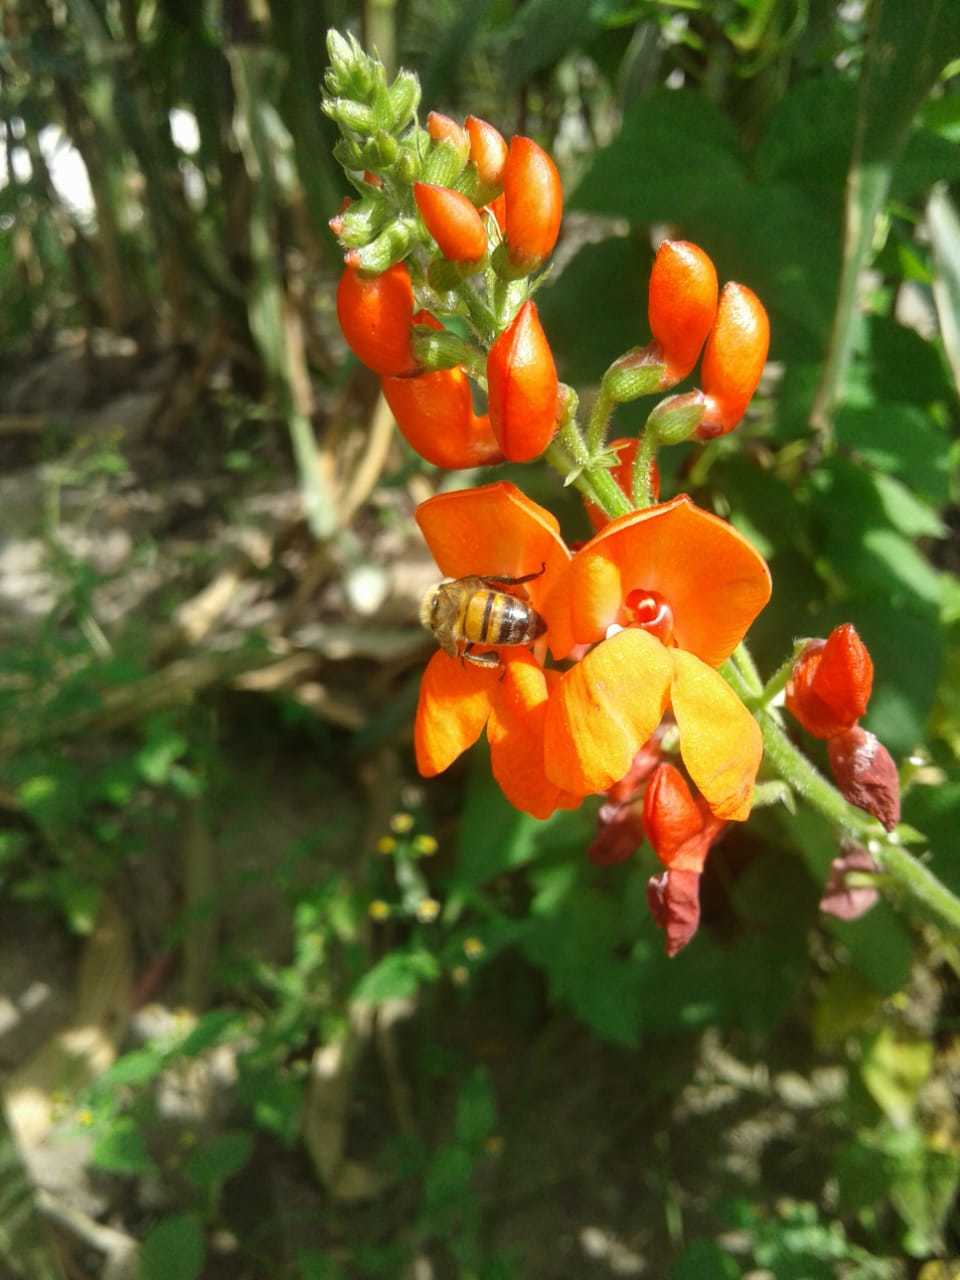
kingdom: Animalia
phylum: Arthropoda
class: Insecta
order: Hymenoptera
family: Apidae
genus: Apis
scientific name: Apis mellifera
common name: Honey bee
